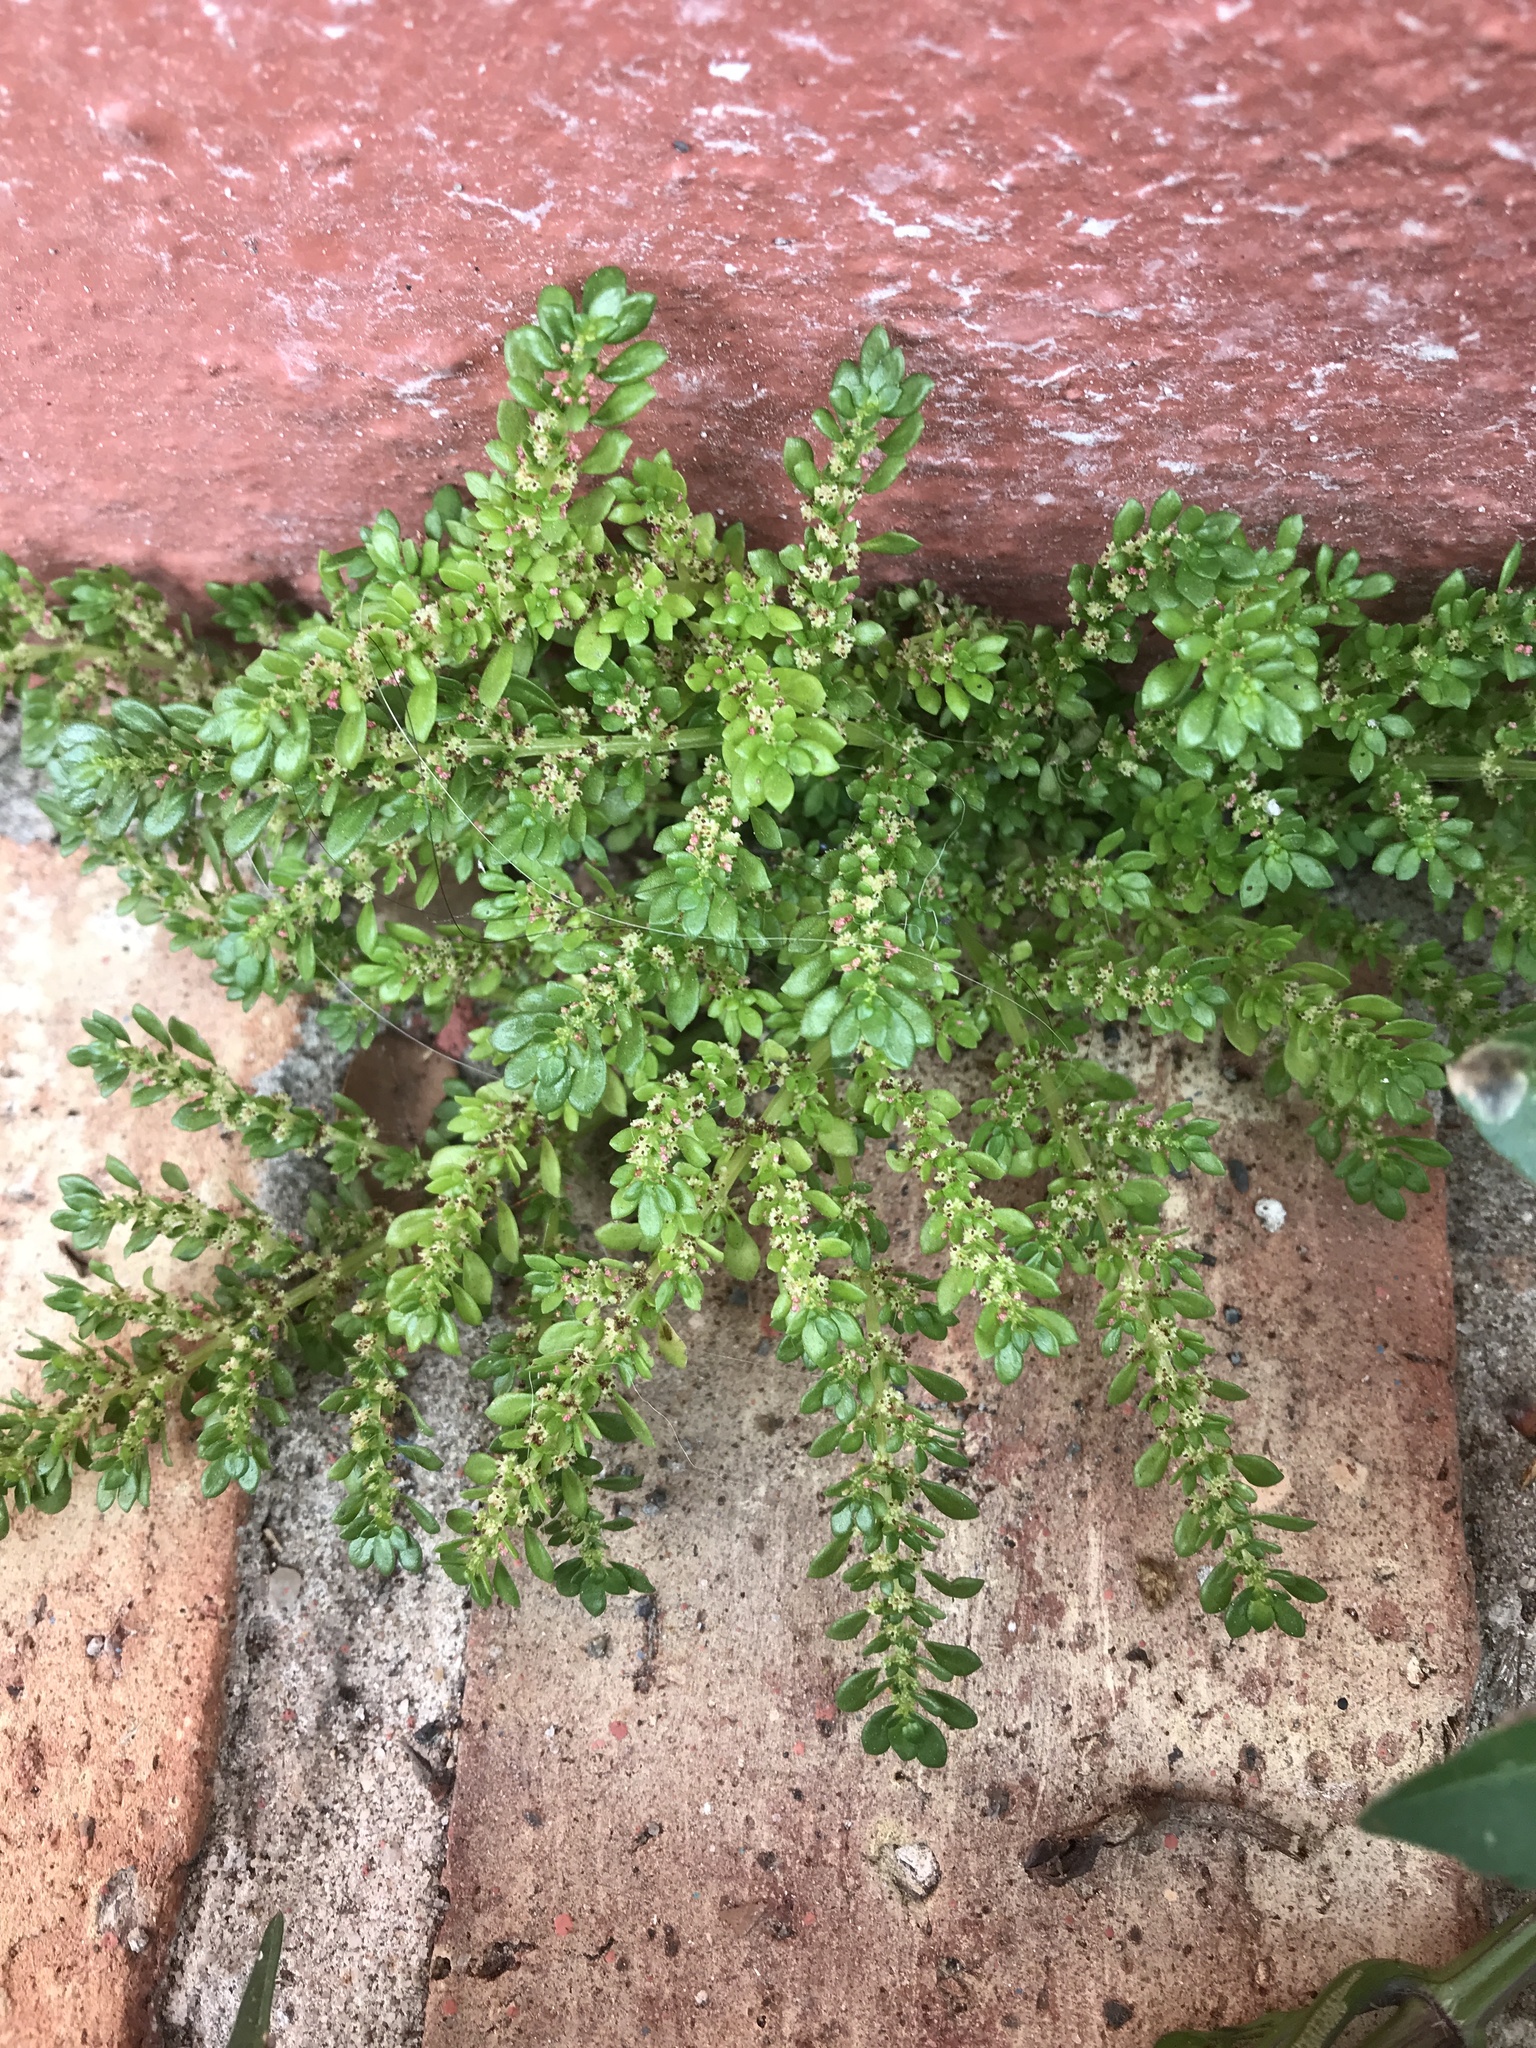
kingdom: Plantae
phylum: Tracheophyta
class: Magnoliopsida
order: Rosales
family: Urticaceae
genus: Pilea
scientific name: Pilea microphylla
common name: Artillery-plant
